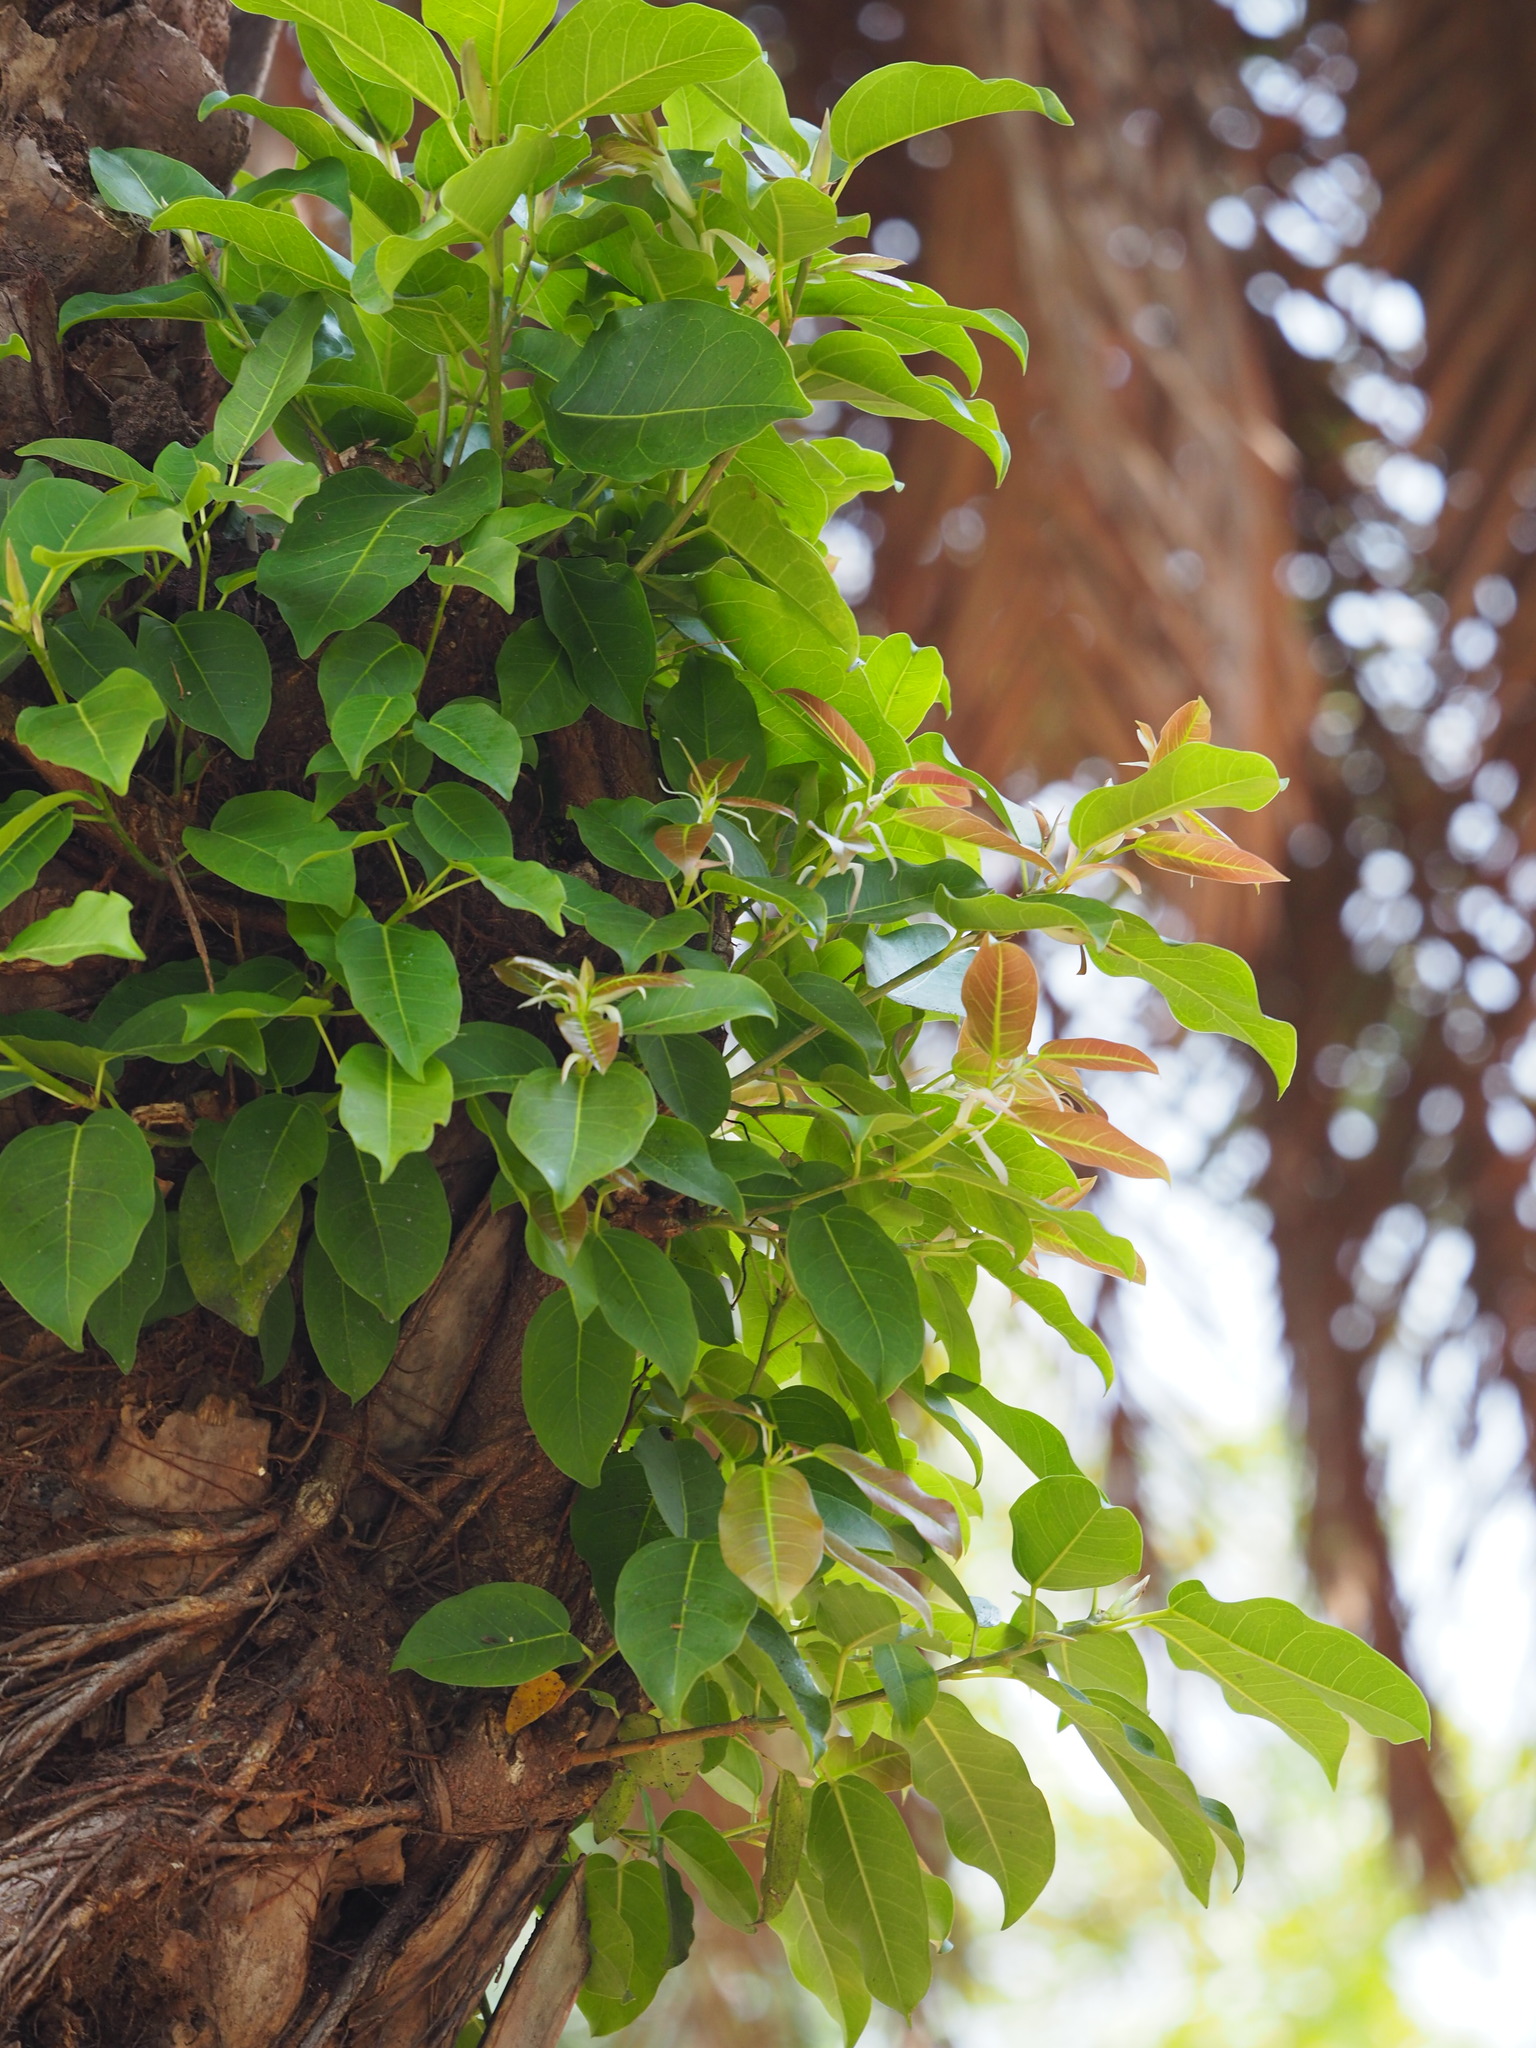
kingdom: Plantae
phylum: Tracheophyta
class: Magnoliopsida
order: Rosales
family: Moraceae
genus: Ficus
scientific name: Ficus subpisocarpa
